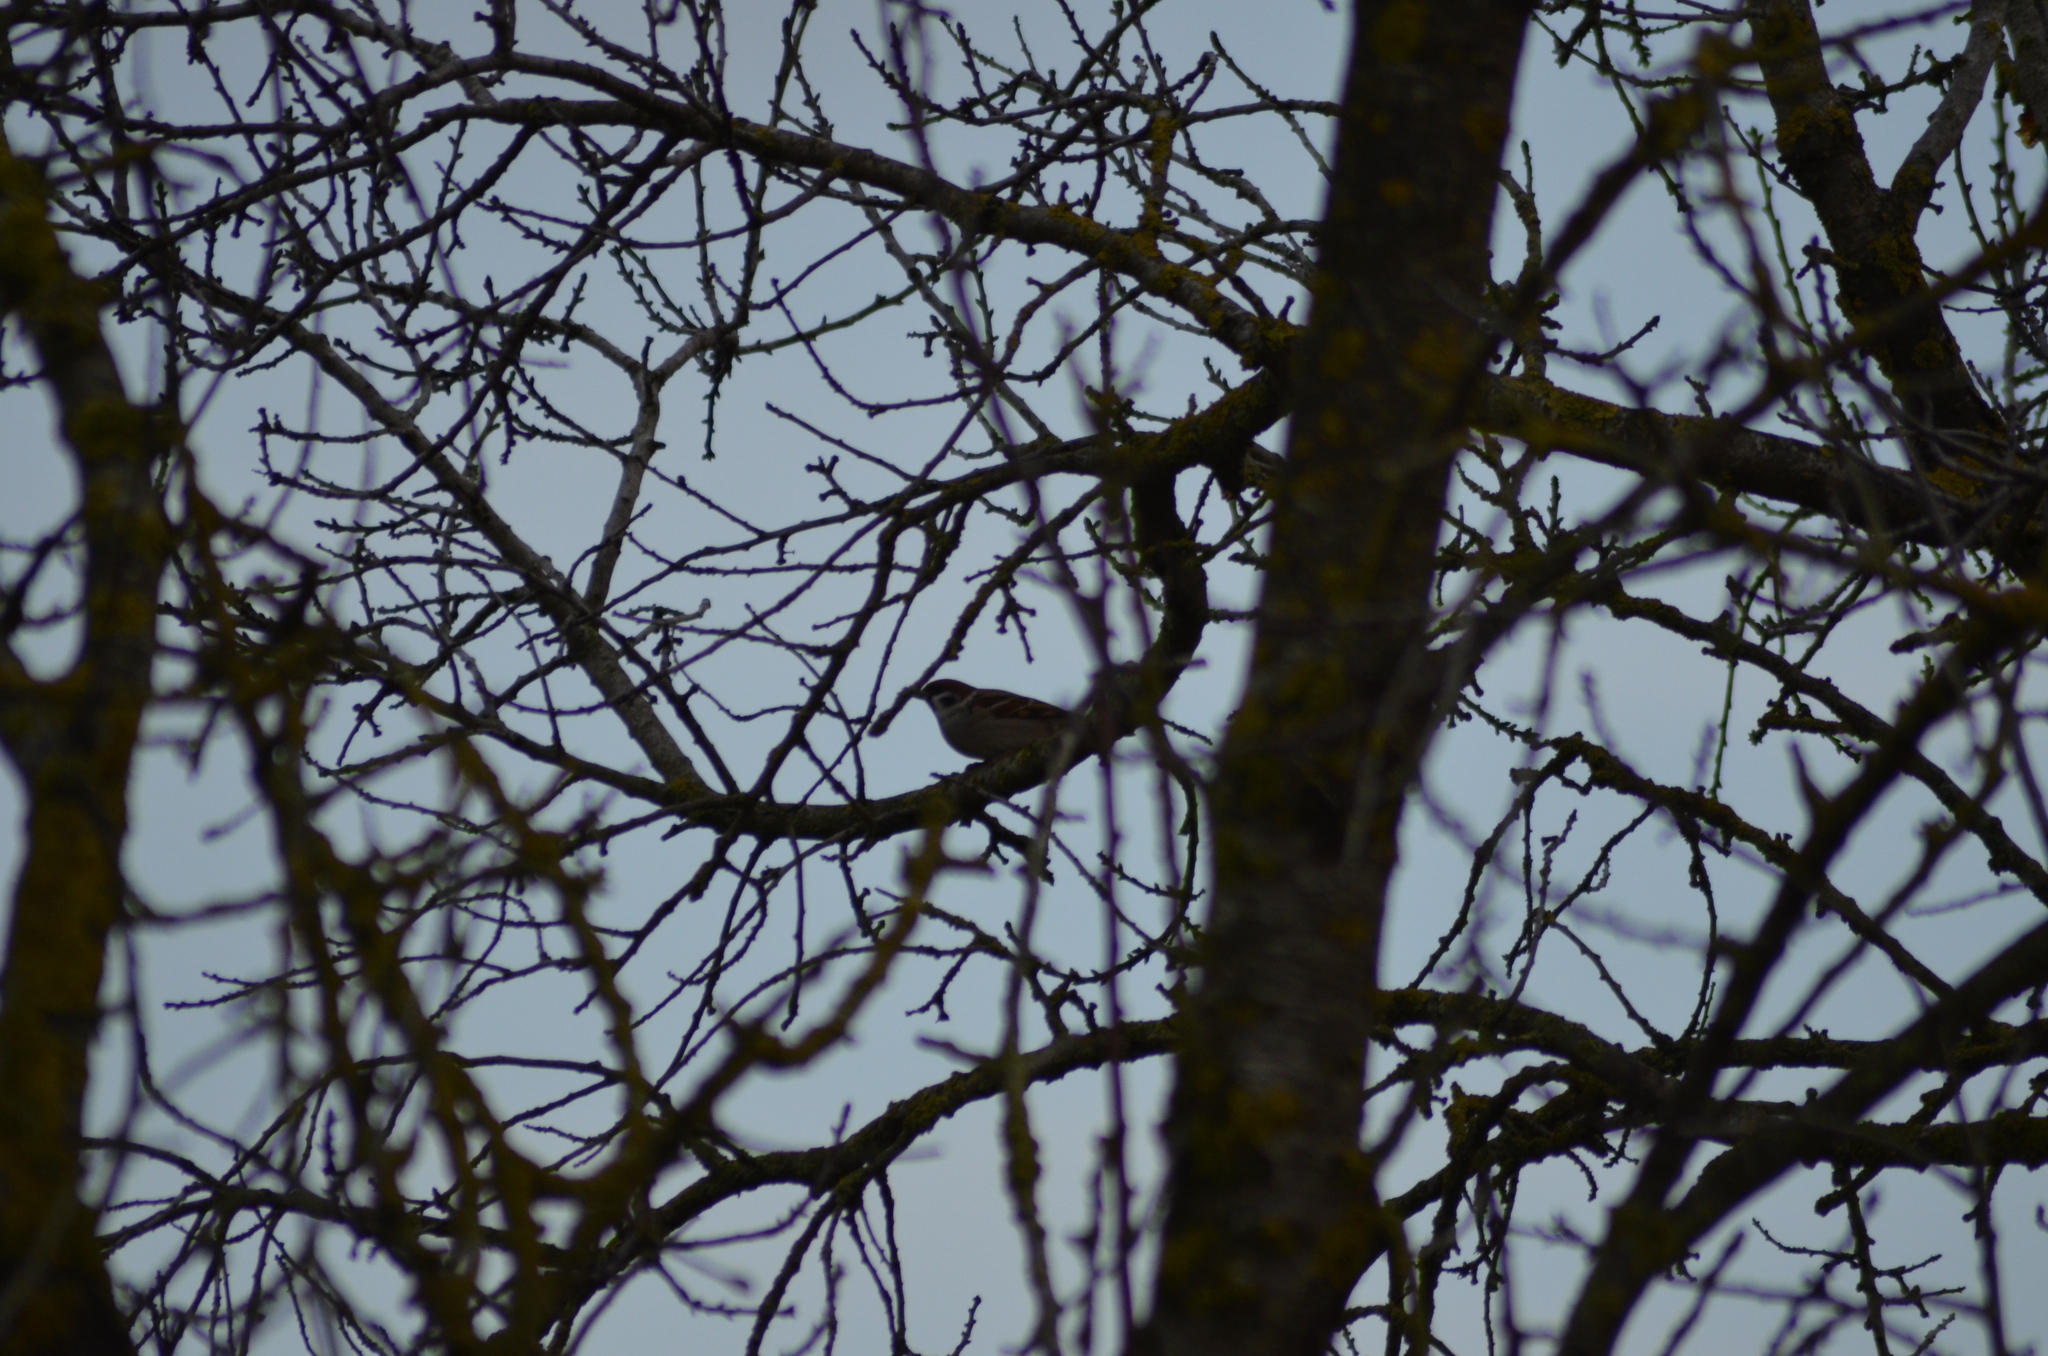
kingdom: Animalia
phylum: Chordata
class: Aves
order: Passeriformes
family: Passeridae
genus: Passer
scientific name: Passer montanus
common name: Eurasian tree sparrow
